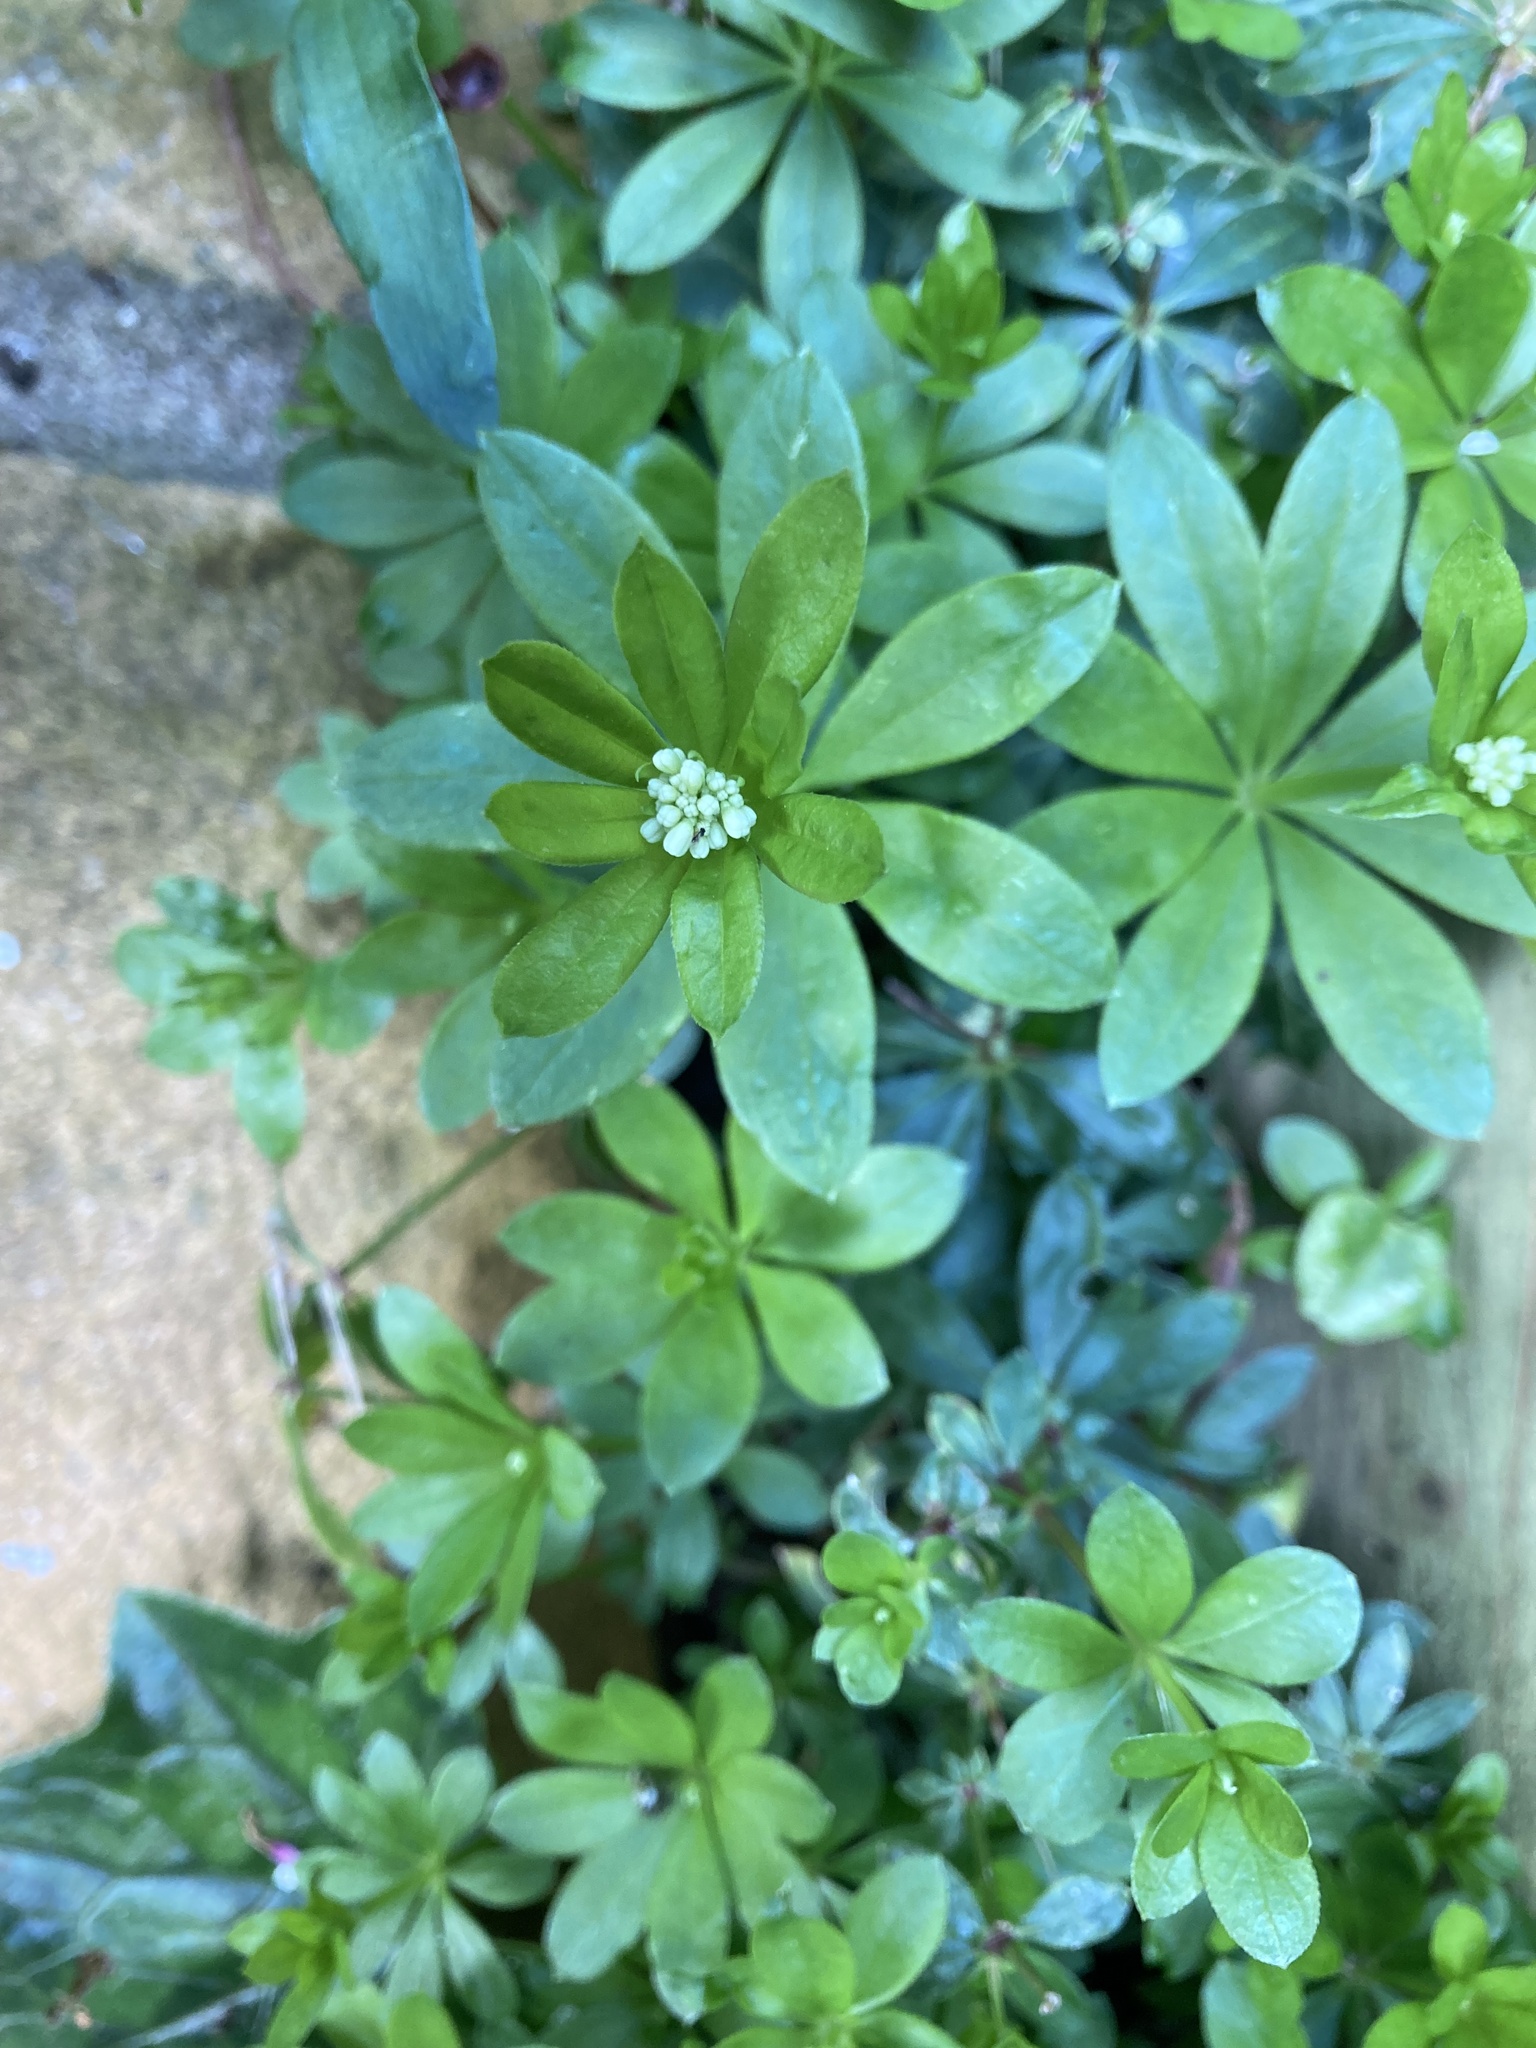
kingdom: Plantae
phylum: Tracheophyta
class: Magnoliopsida
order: Gentianales
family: Rubiaceae
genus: Galium
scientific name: Galium odoratum
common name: Sweet woodruff
